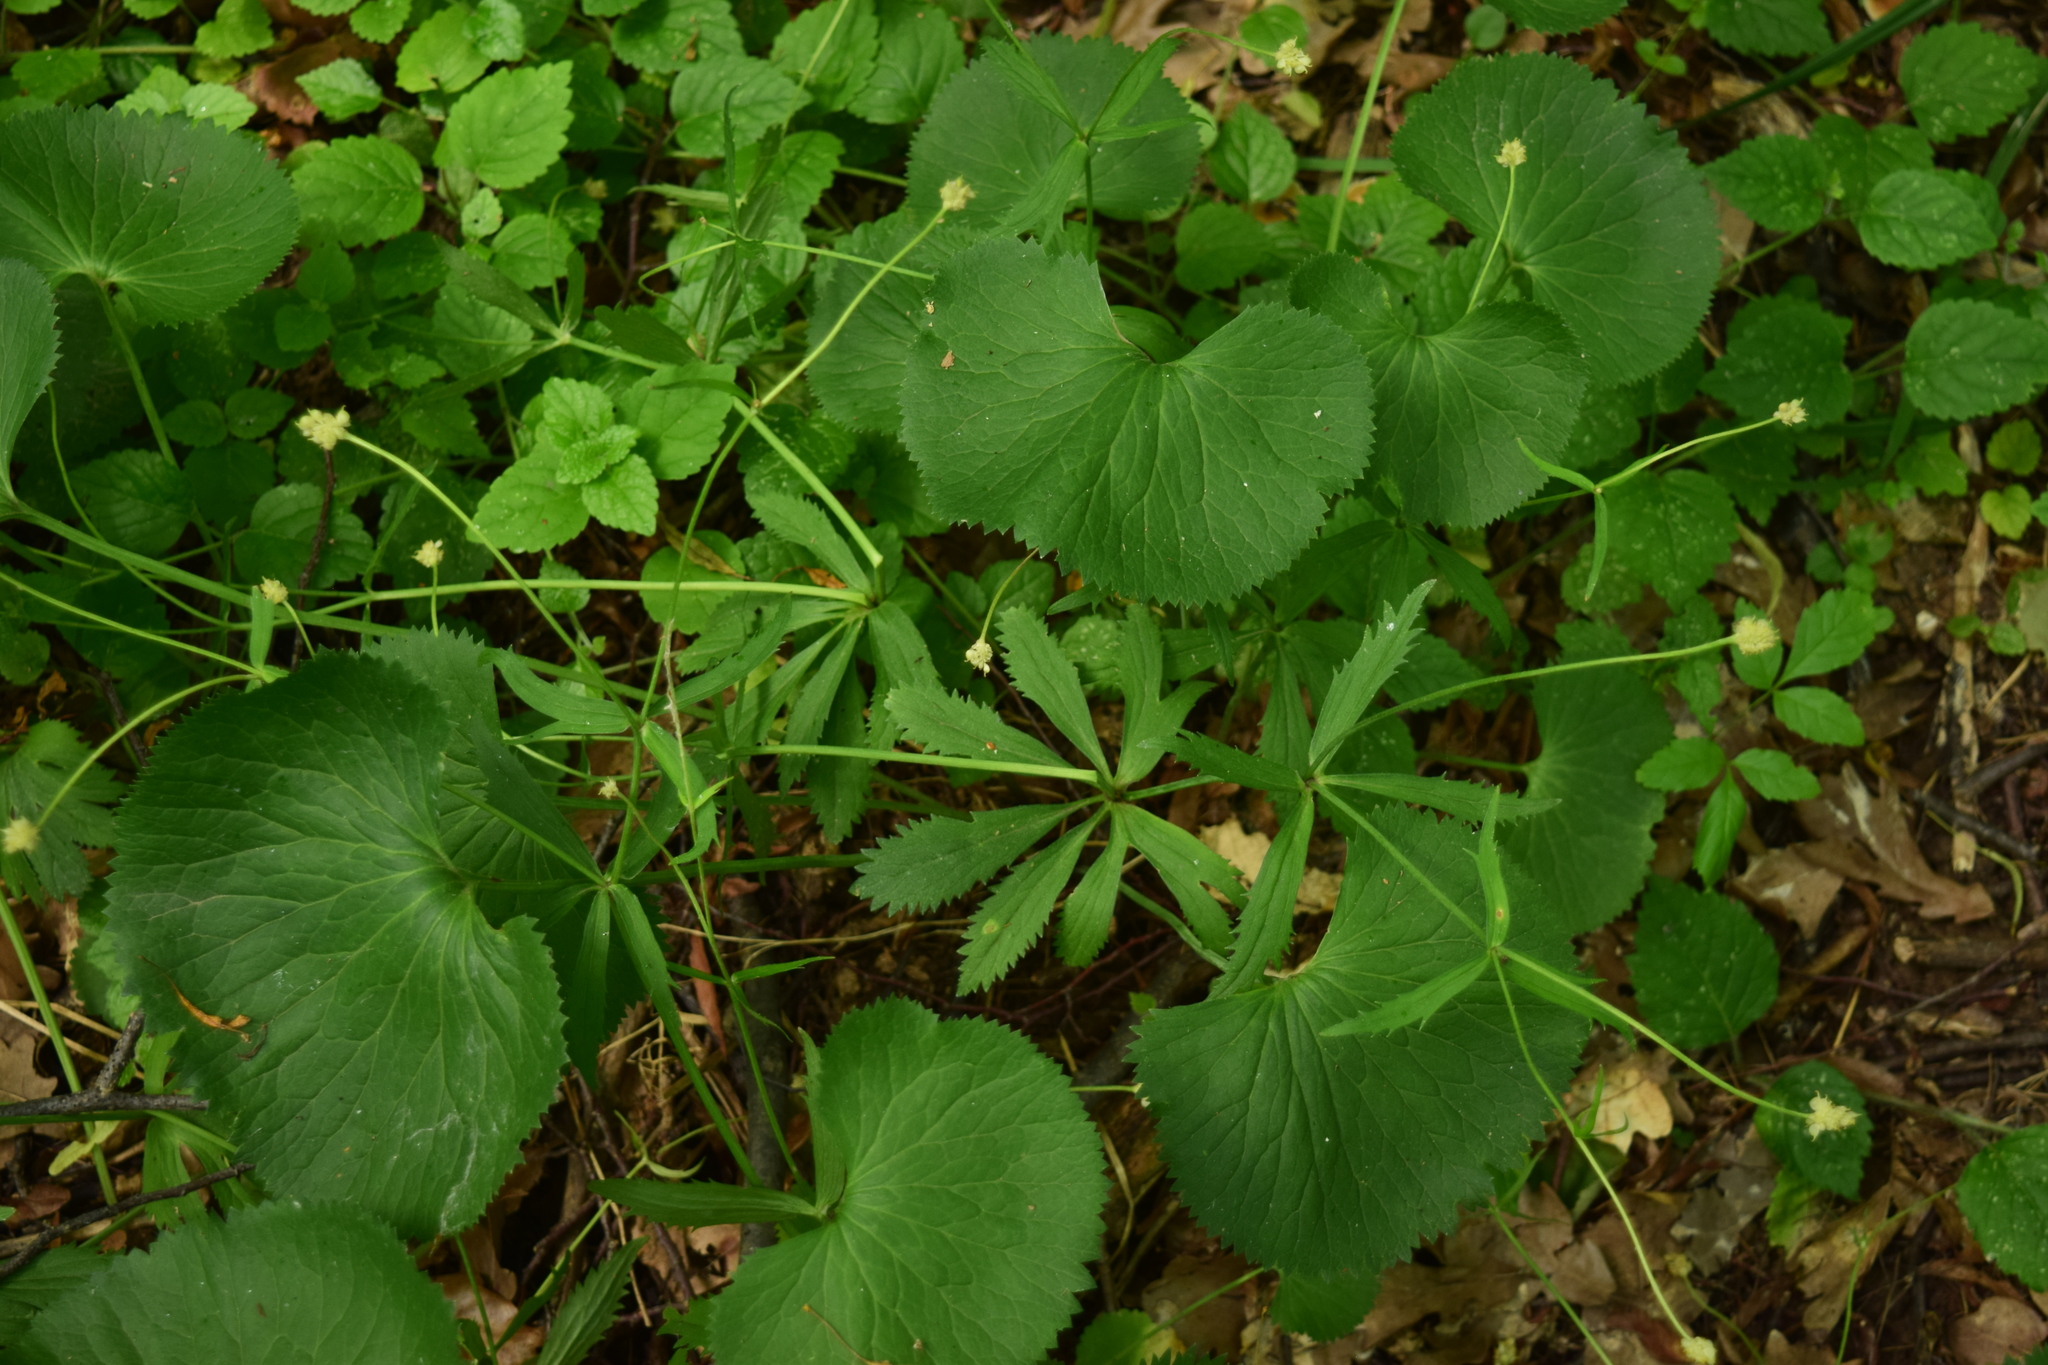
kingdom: Plantae
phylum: Tracheophyta
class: Magnoliopsida
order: Ranunculales
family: Ranunculaceae
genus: Ranunculus
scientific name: Ranunculus cassubicus
